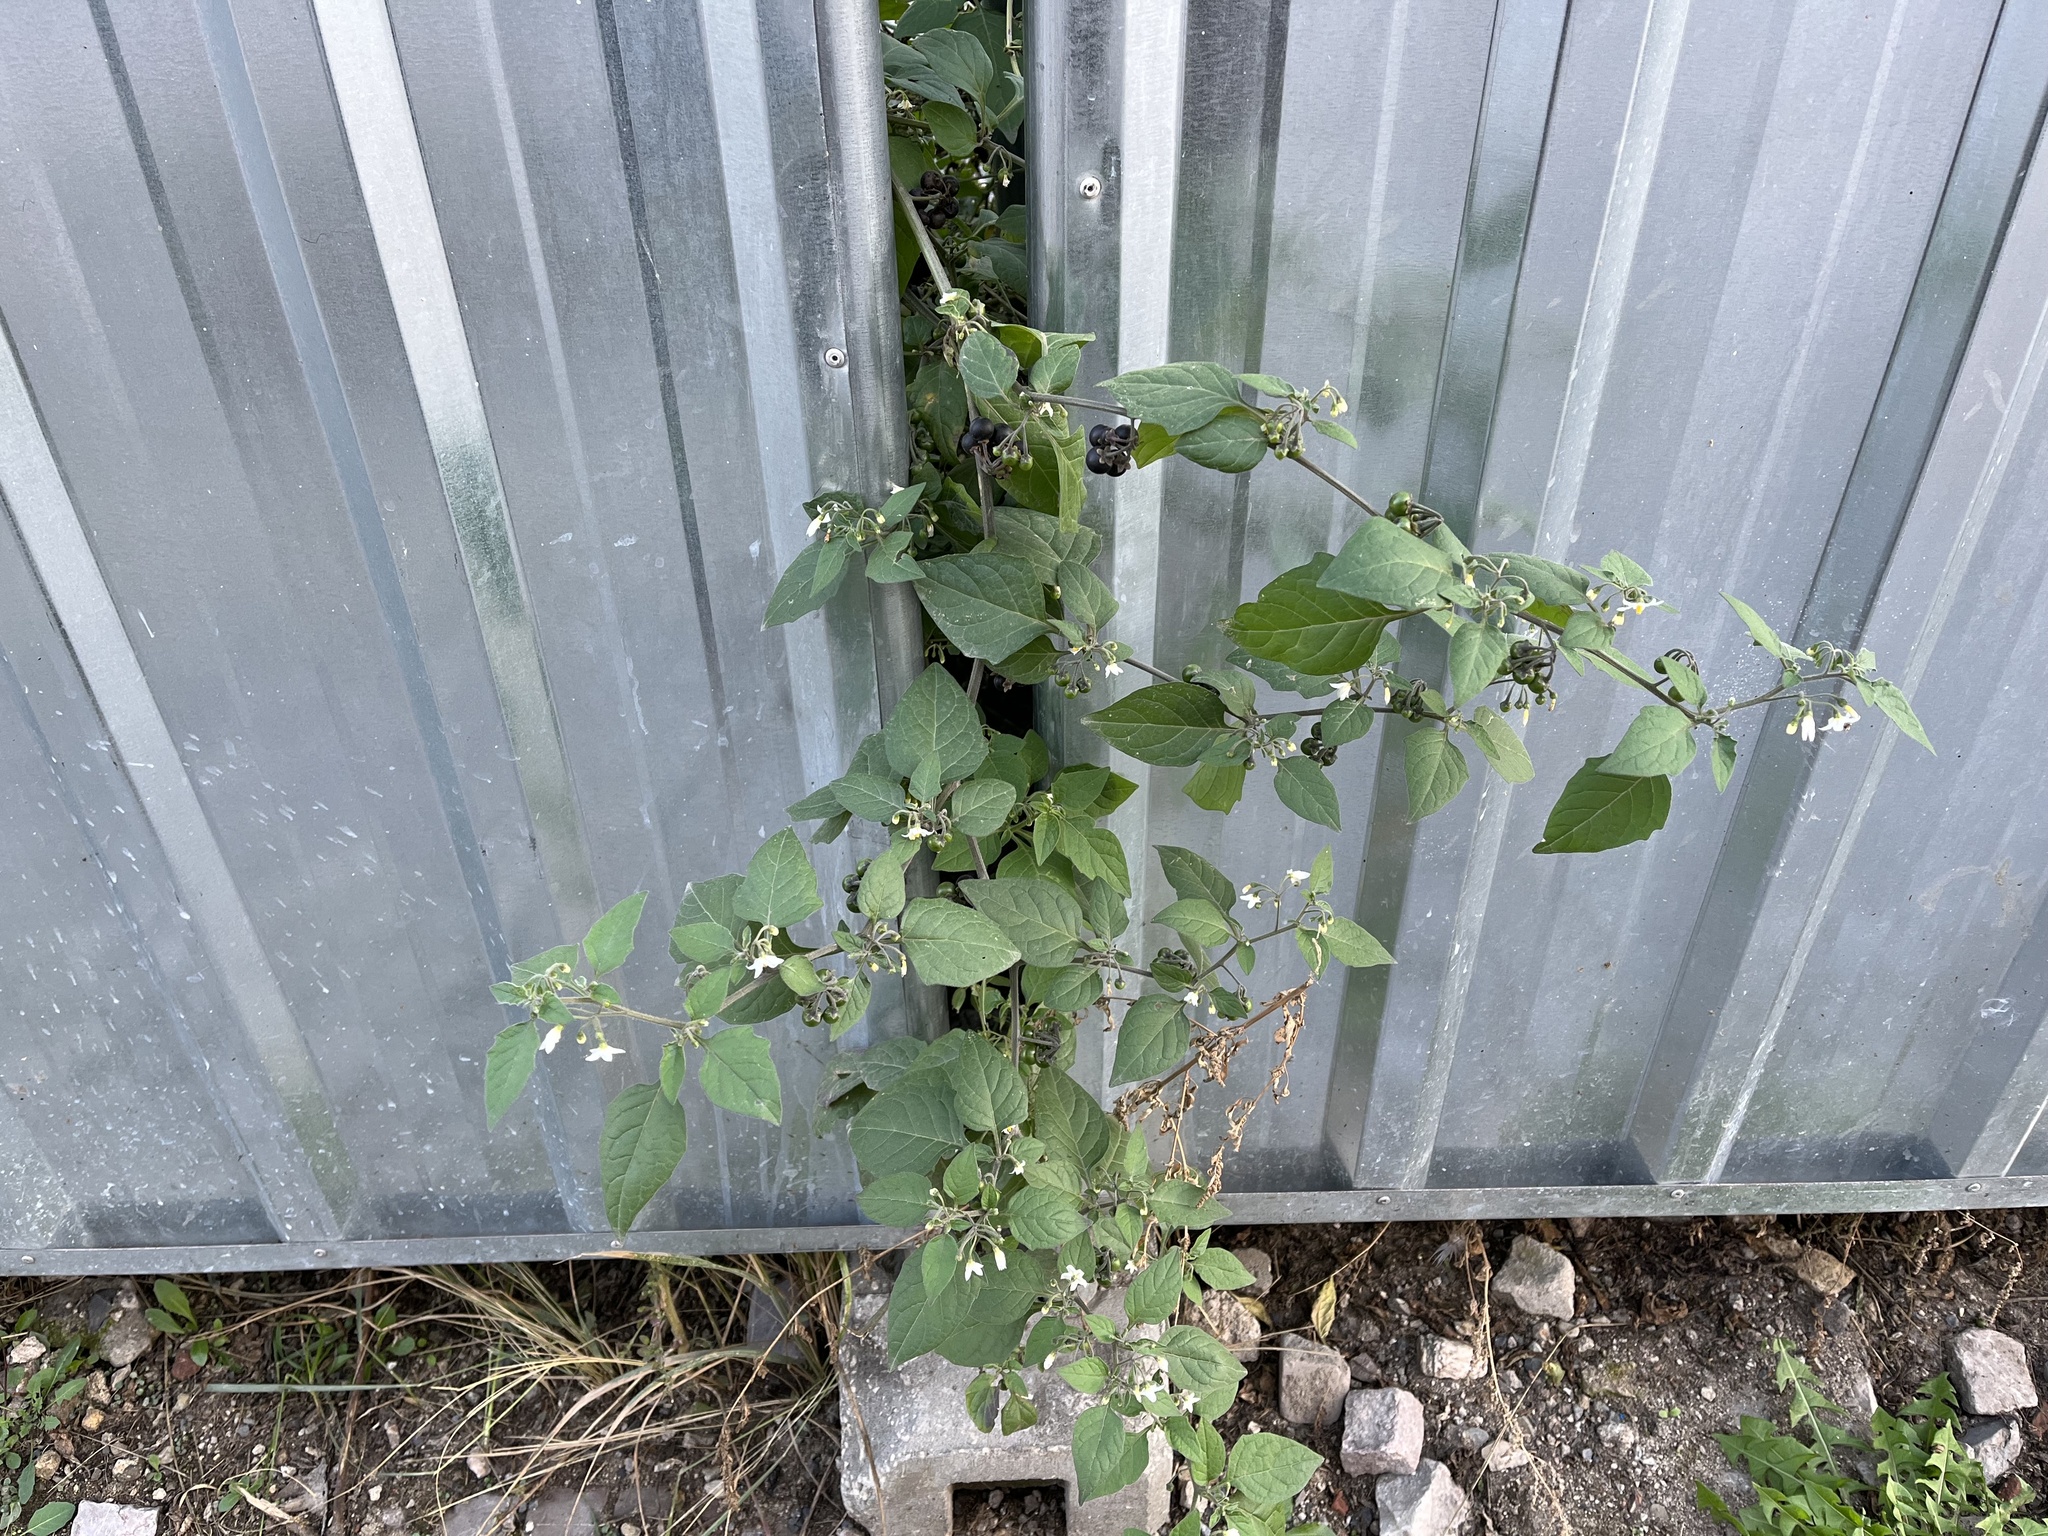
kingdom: Plantae
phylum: Tracheophyta
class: Magnoliopsida
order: Solanales
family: Solanaceae
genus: Solanum
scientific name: Solanum nigrum
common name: Black nightshade
